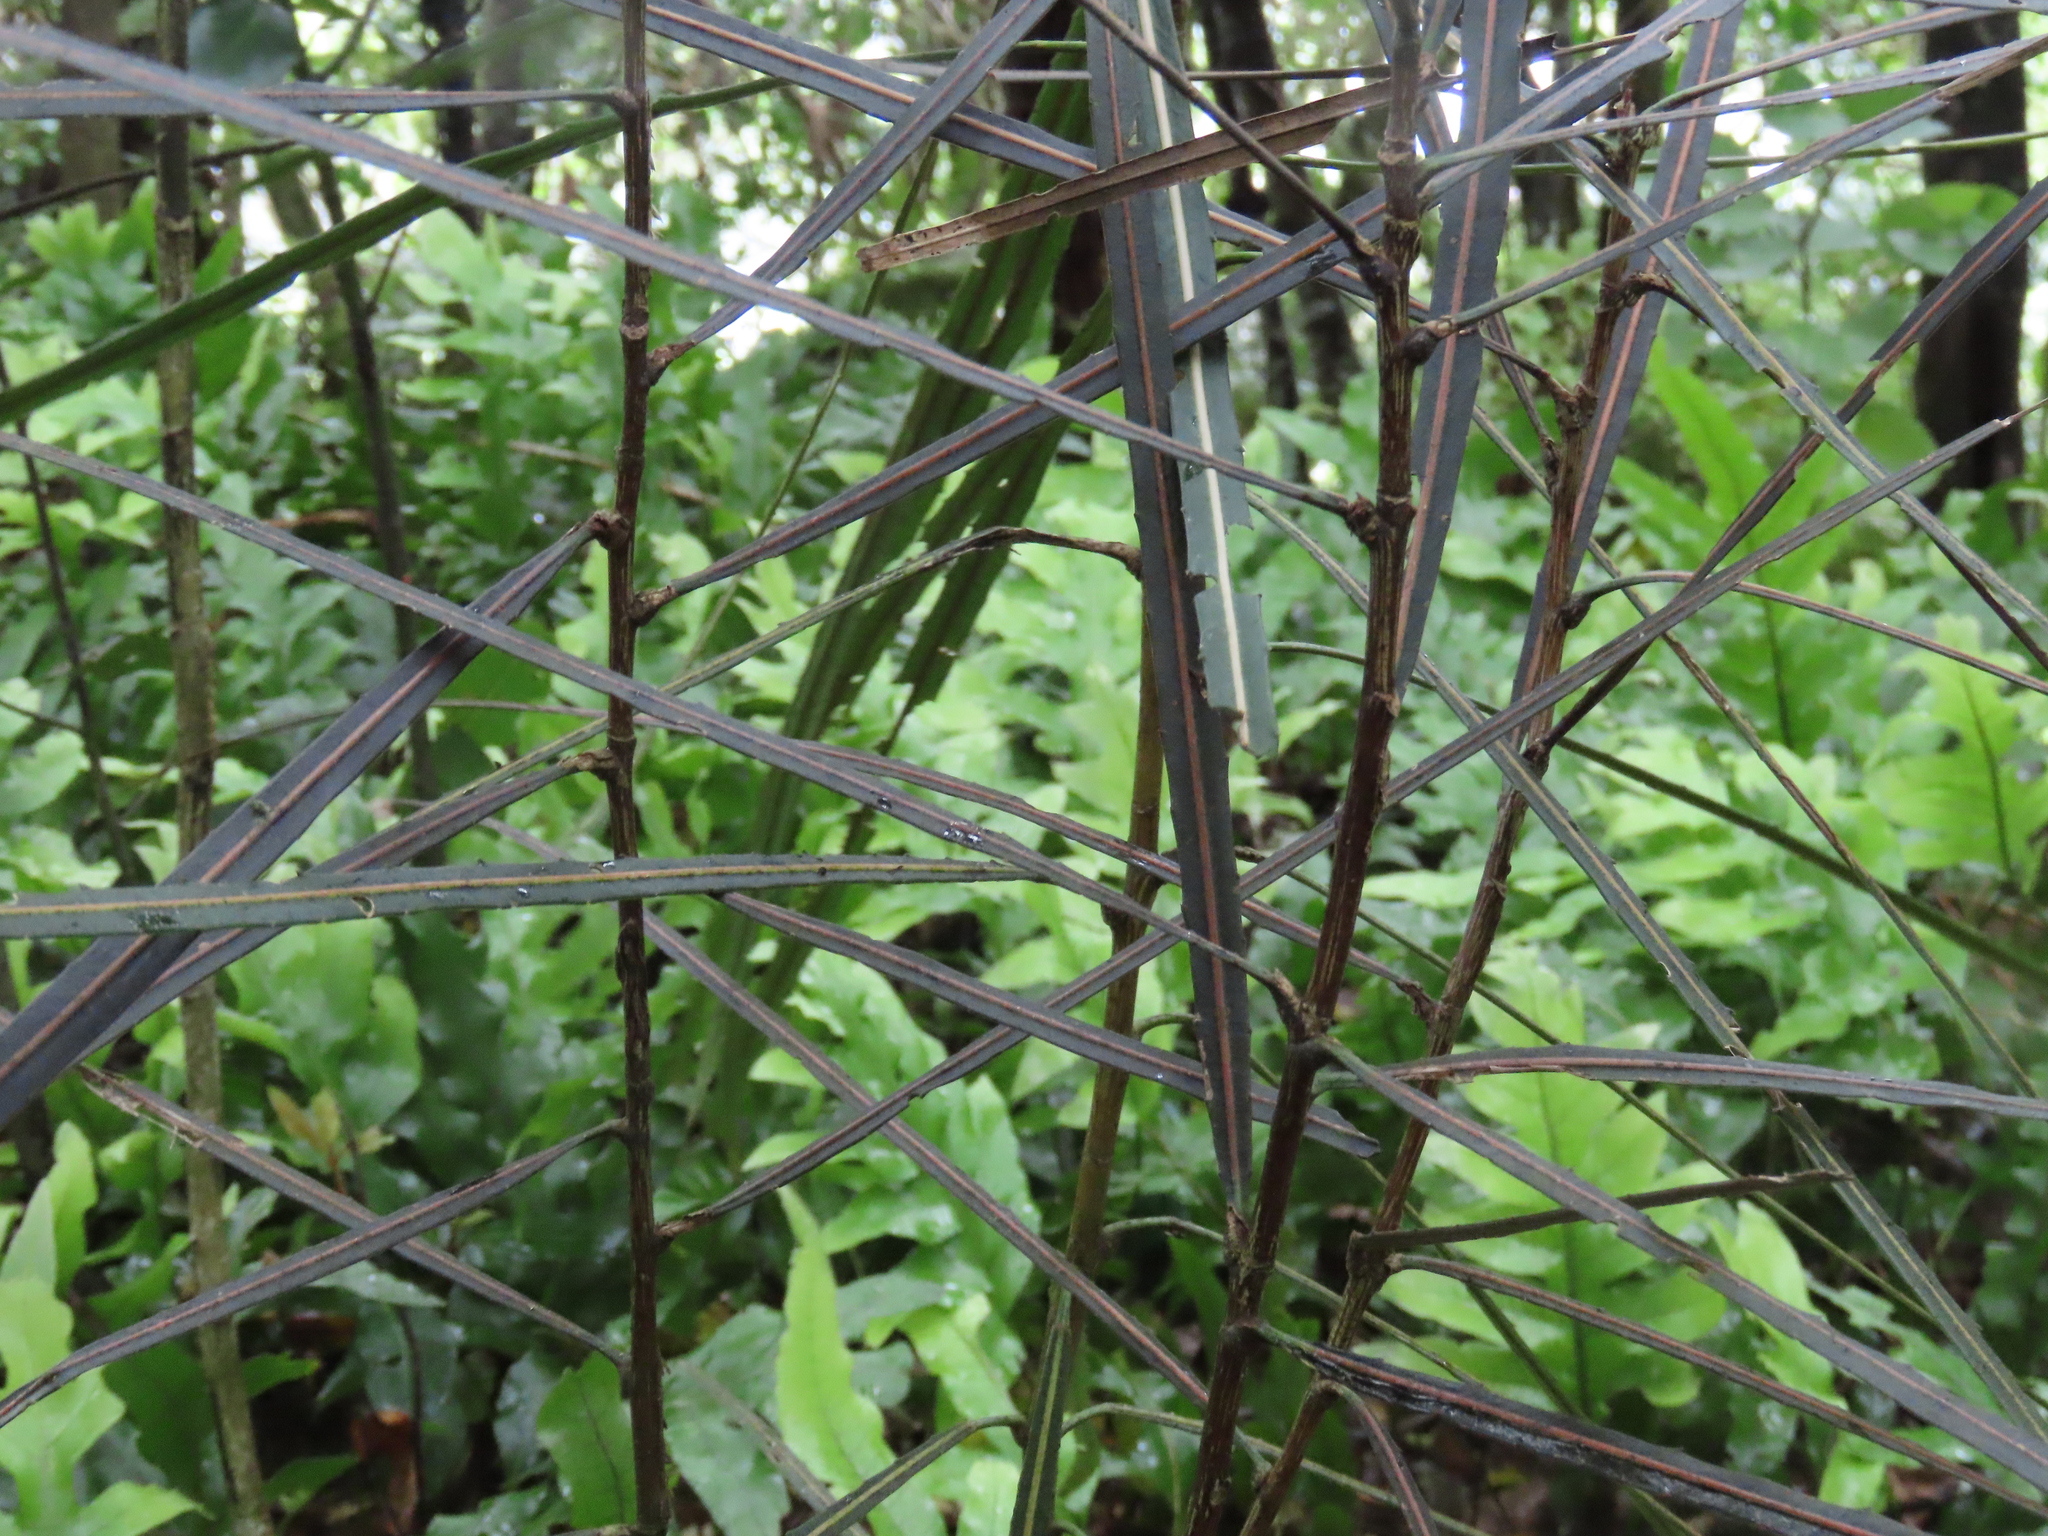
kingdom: Plantae
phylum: Tracheophyta
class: Magnoliopsida
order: Apiales
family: Araliaceae
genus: Pseudopanax
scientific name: Pseudopanax crassifolius
